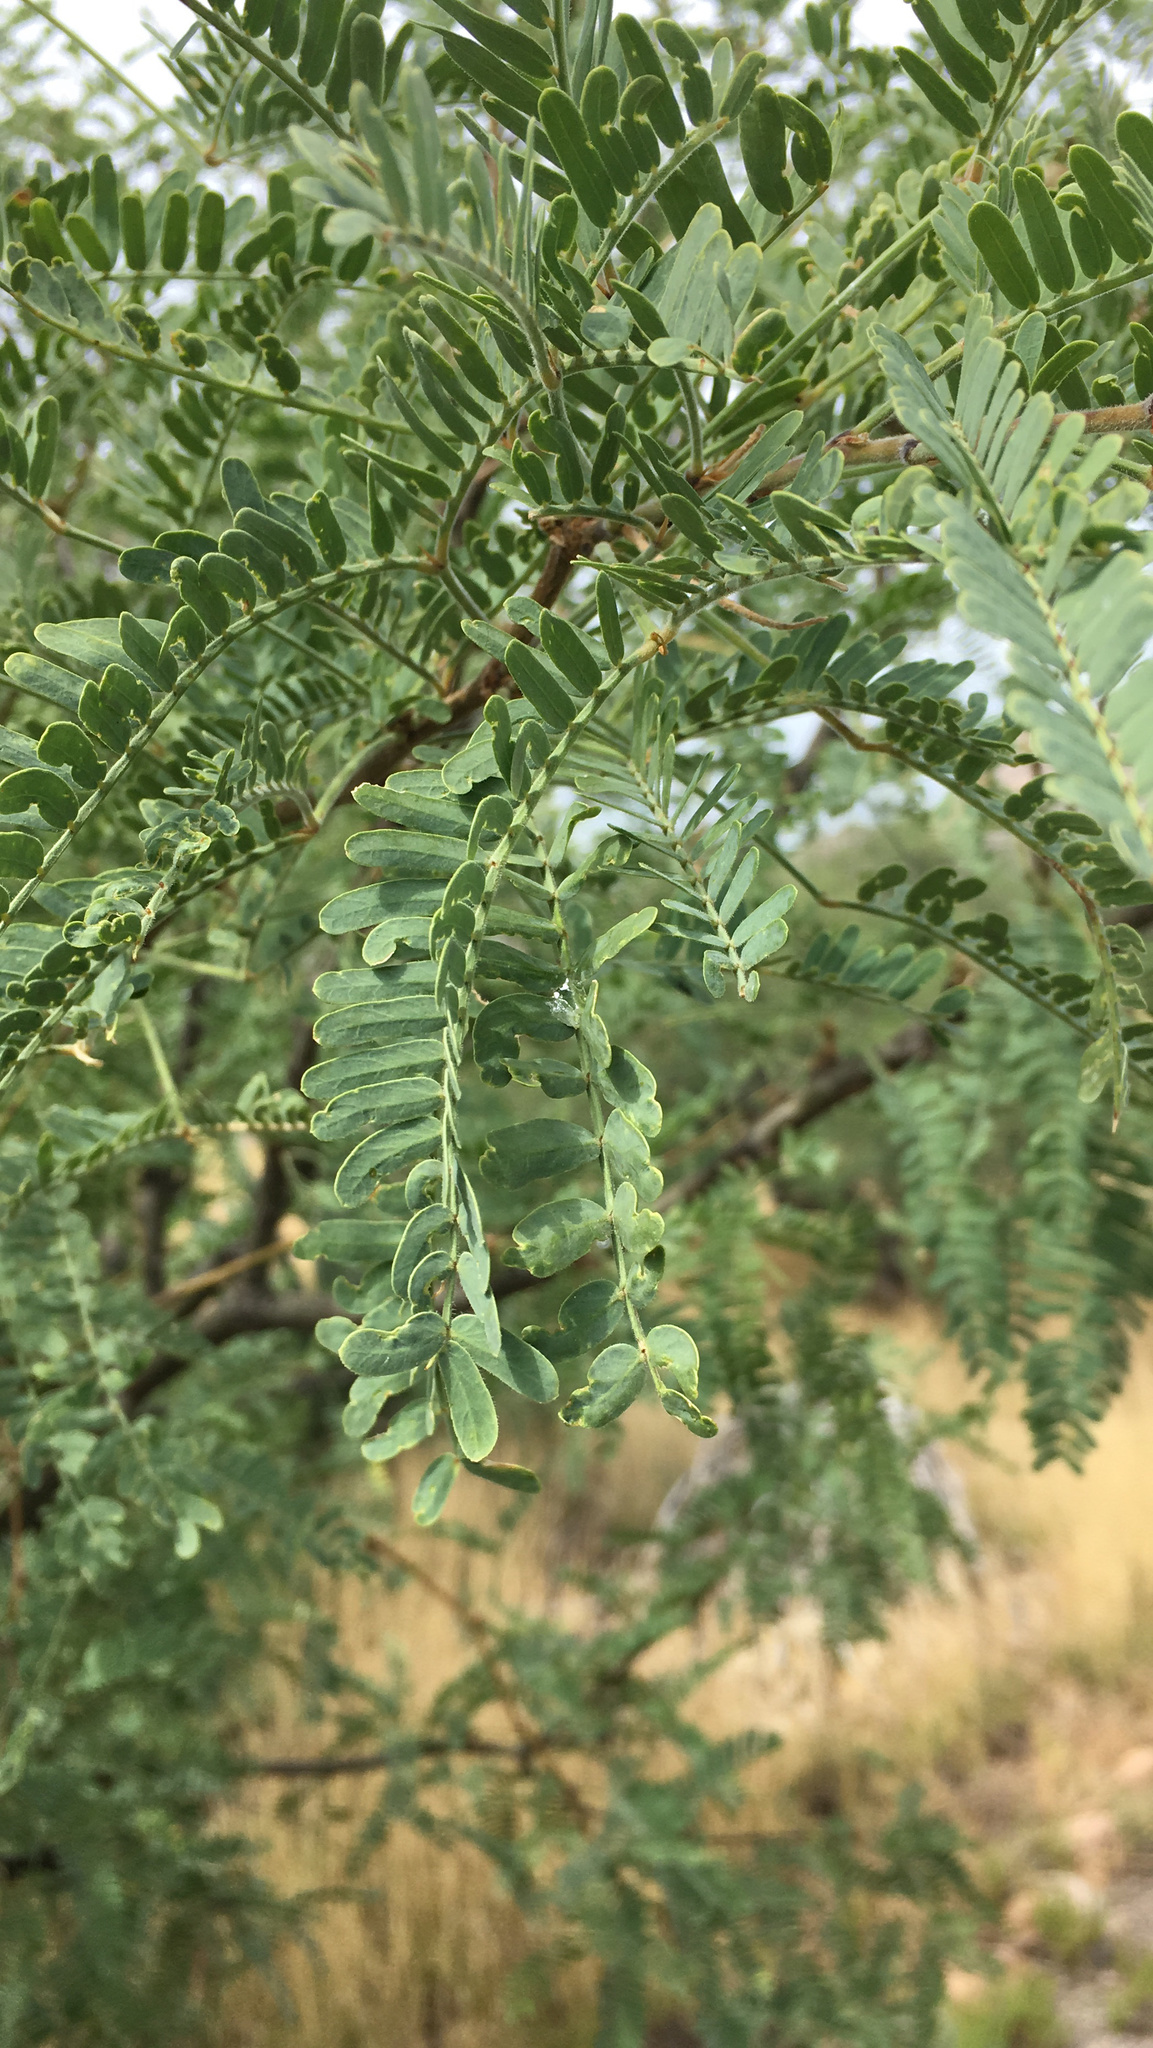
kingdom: Plantae
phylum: Tracheophyta
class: Magnoliopsida
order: Fabales
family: Fabaceae
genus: Prosopis
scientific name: Prosopis velutina
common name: Velvet mesquite
